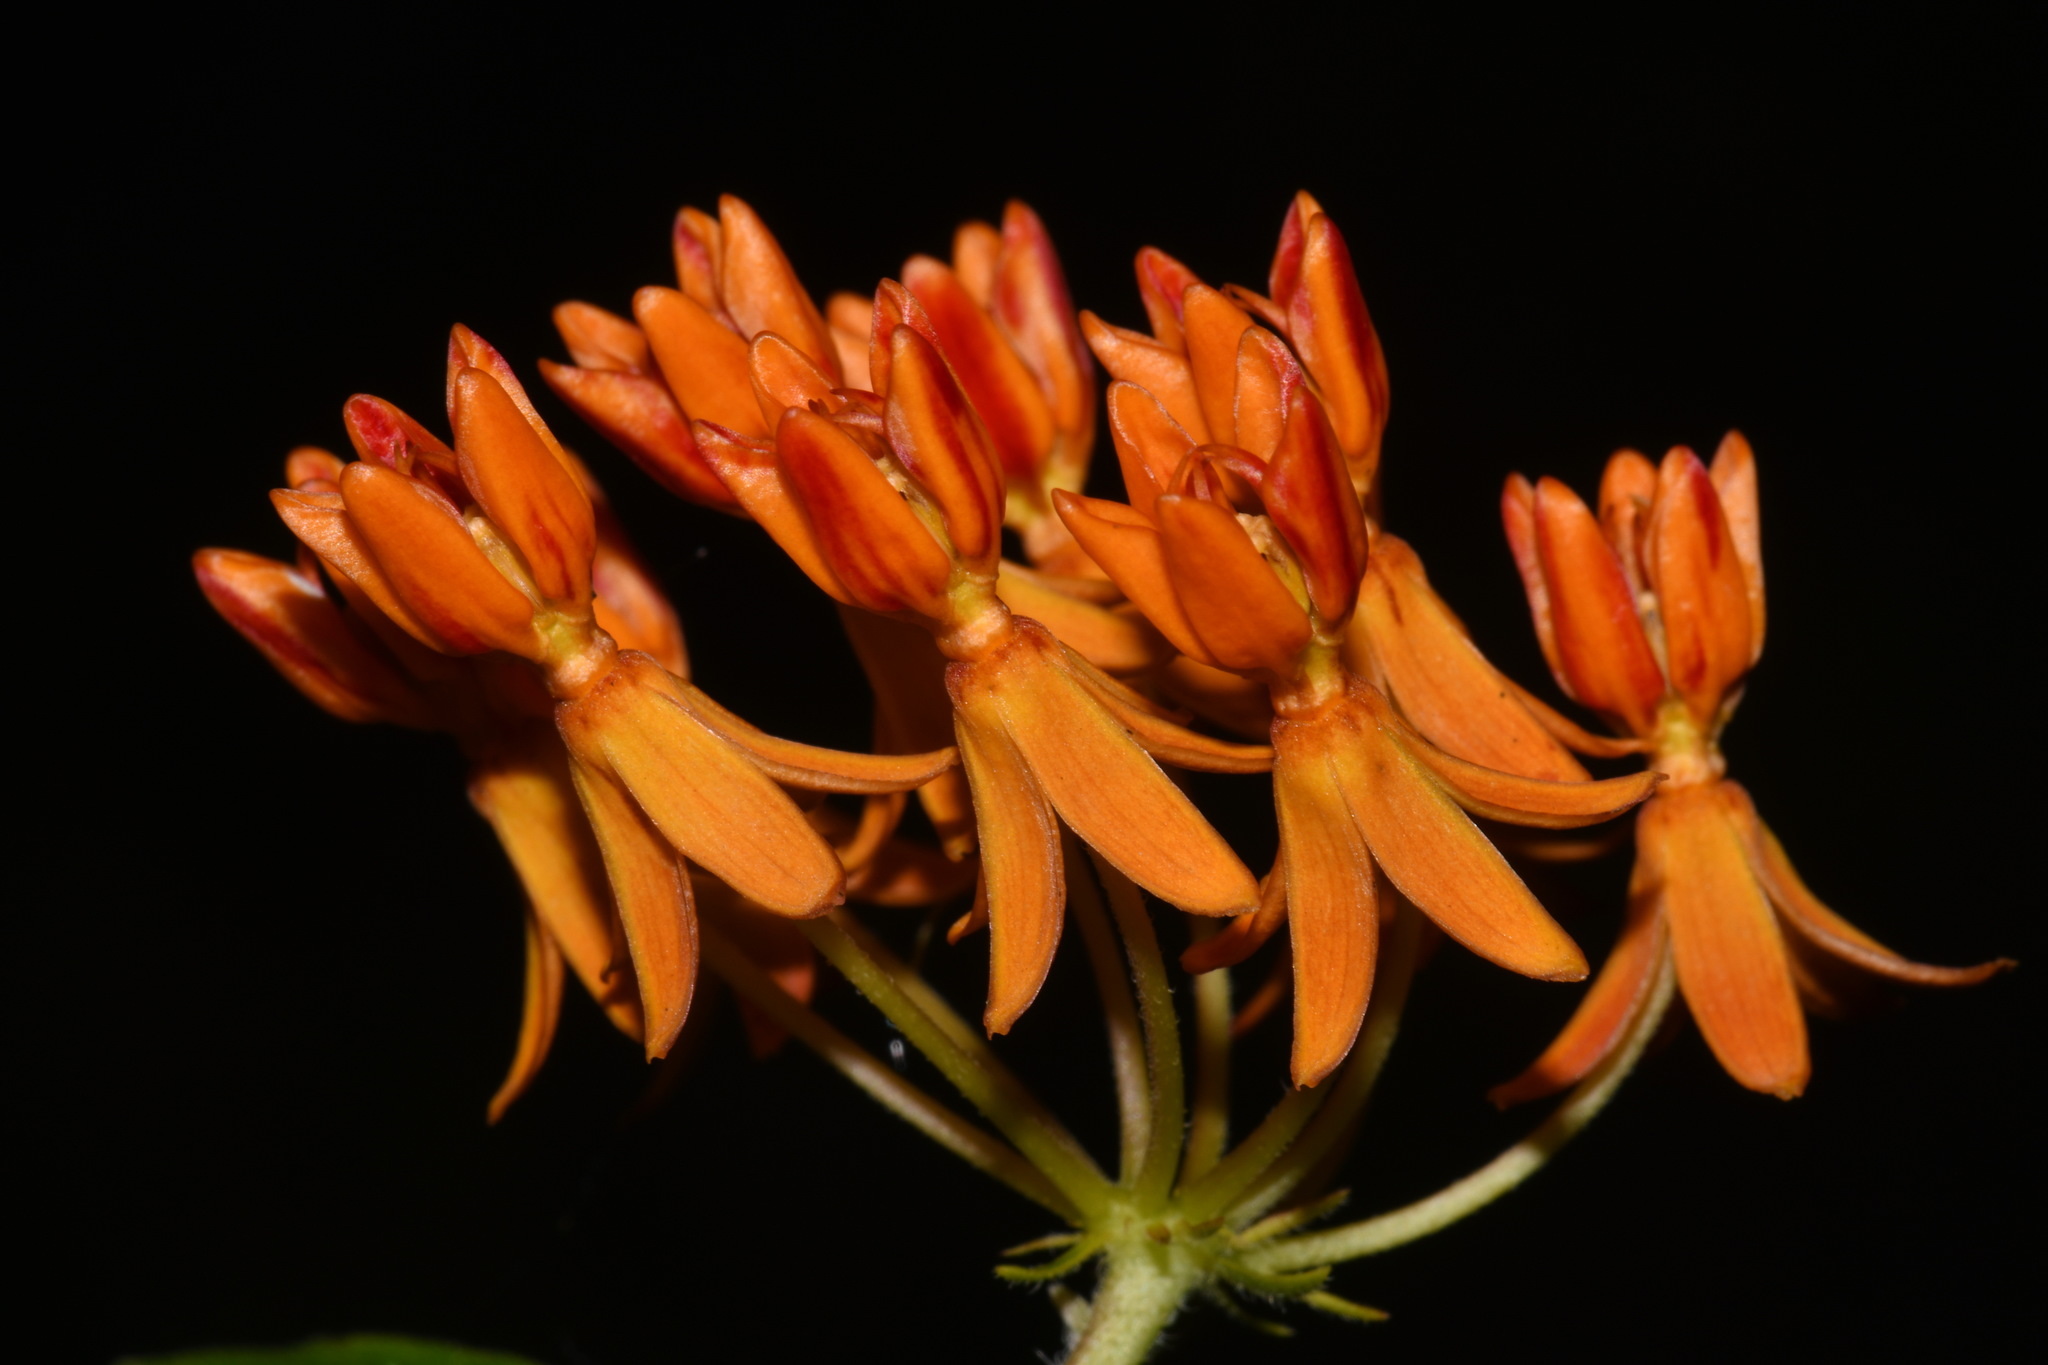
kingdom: Plantae
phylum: Tracheophyta
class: Magnoliopsida
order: Gentianales
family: Apocynaceae
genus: Asclepias
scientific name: Asclepias tuberosa
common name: Butterfly milkweed
